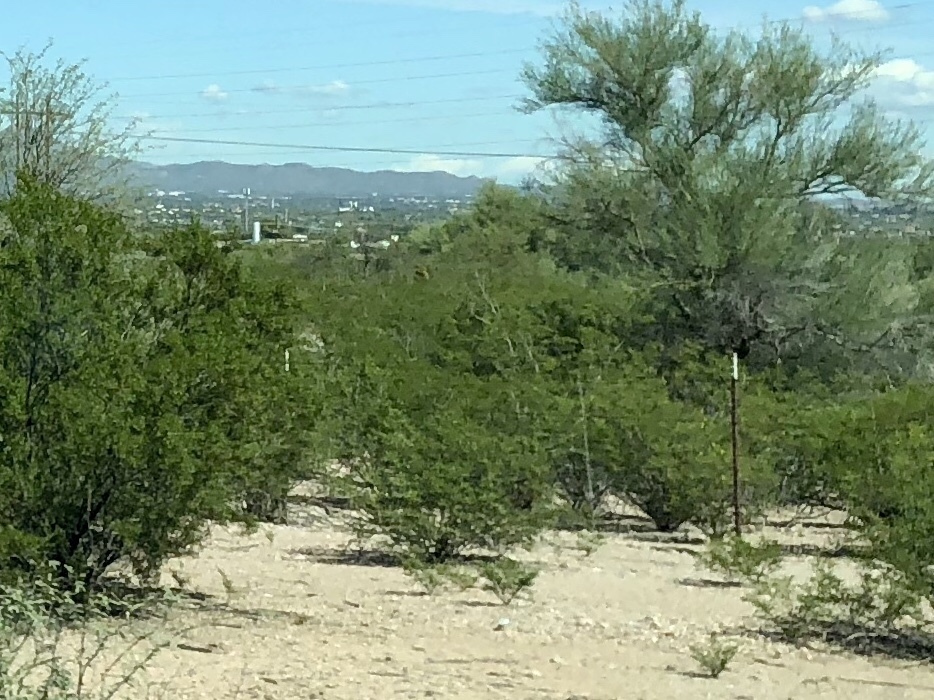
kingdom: Plantae
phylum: Tracheophyta
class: Magnoliopsida
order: Zygophyllales
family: Zygophyllaceae
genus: Larrea
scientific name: Larrea tridentata
